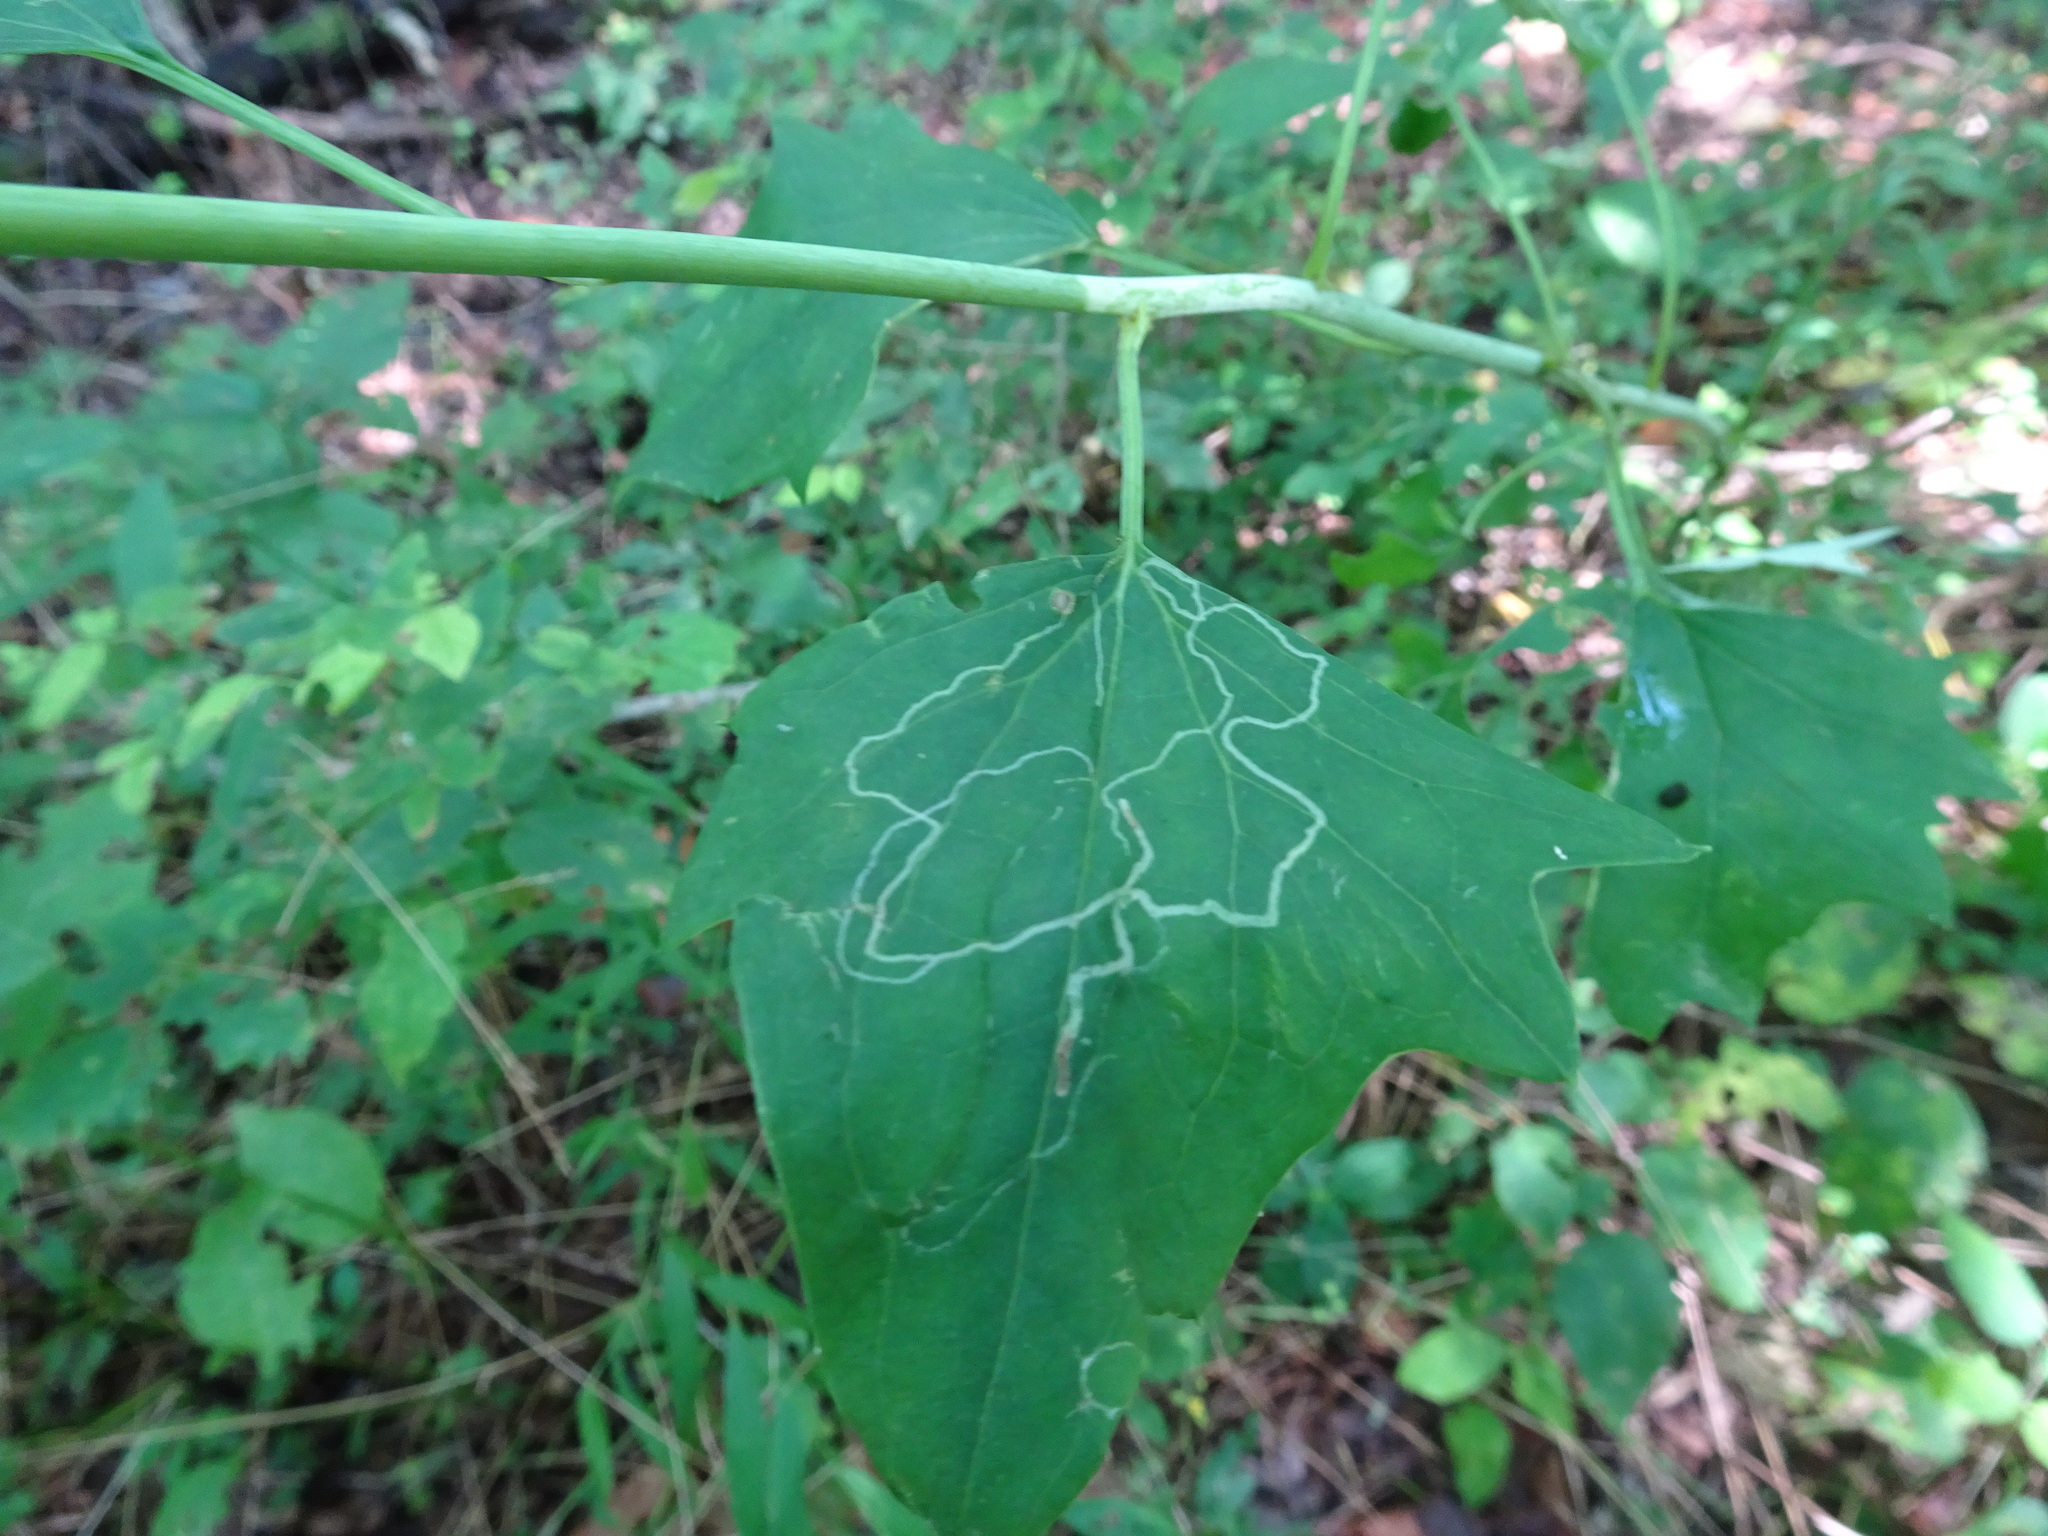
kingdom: Plantae
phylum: Tracheophyta
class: Magnoliopsida
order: Asterales
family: Asteraceae
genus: Arnoglossum
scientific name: Arnoglossum atriplicifolium
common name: Pale indian-plantain
